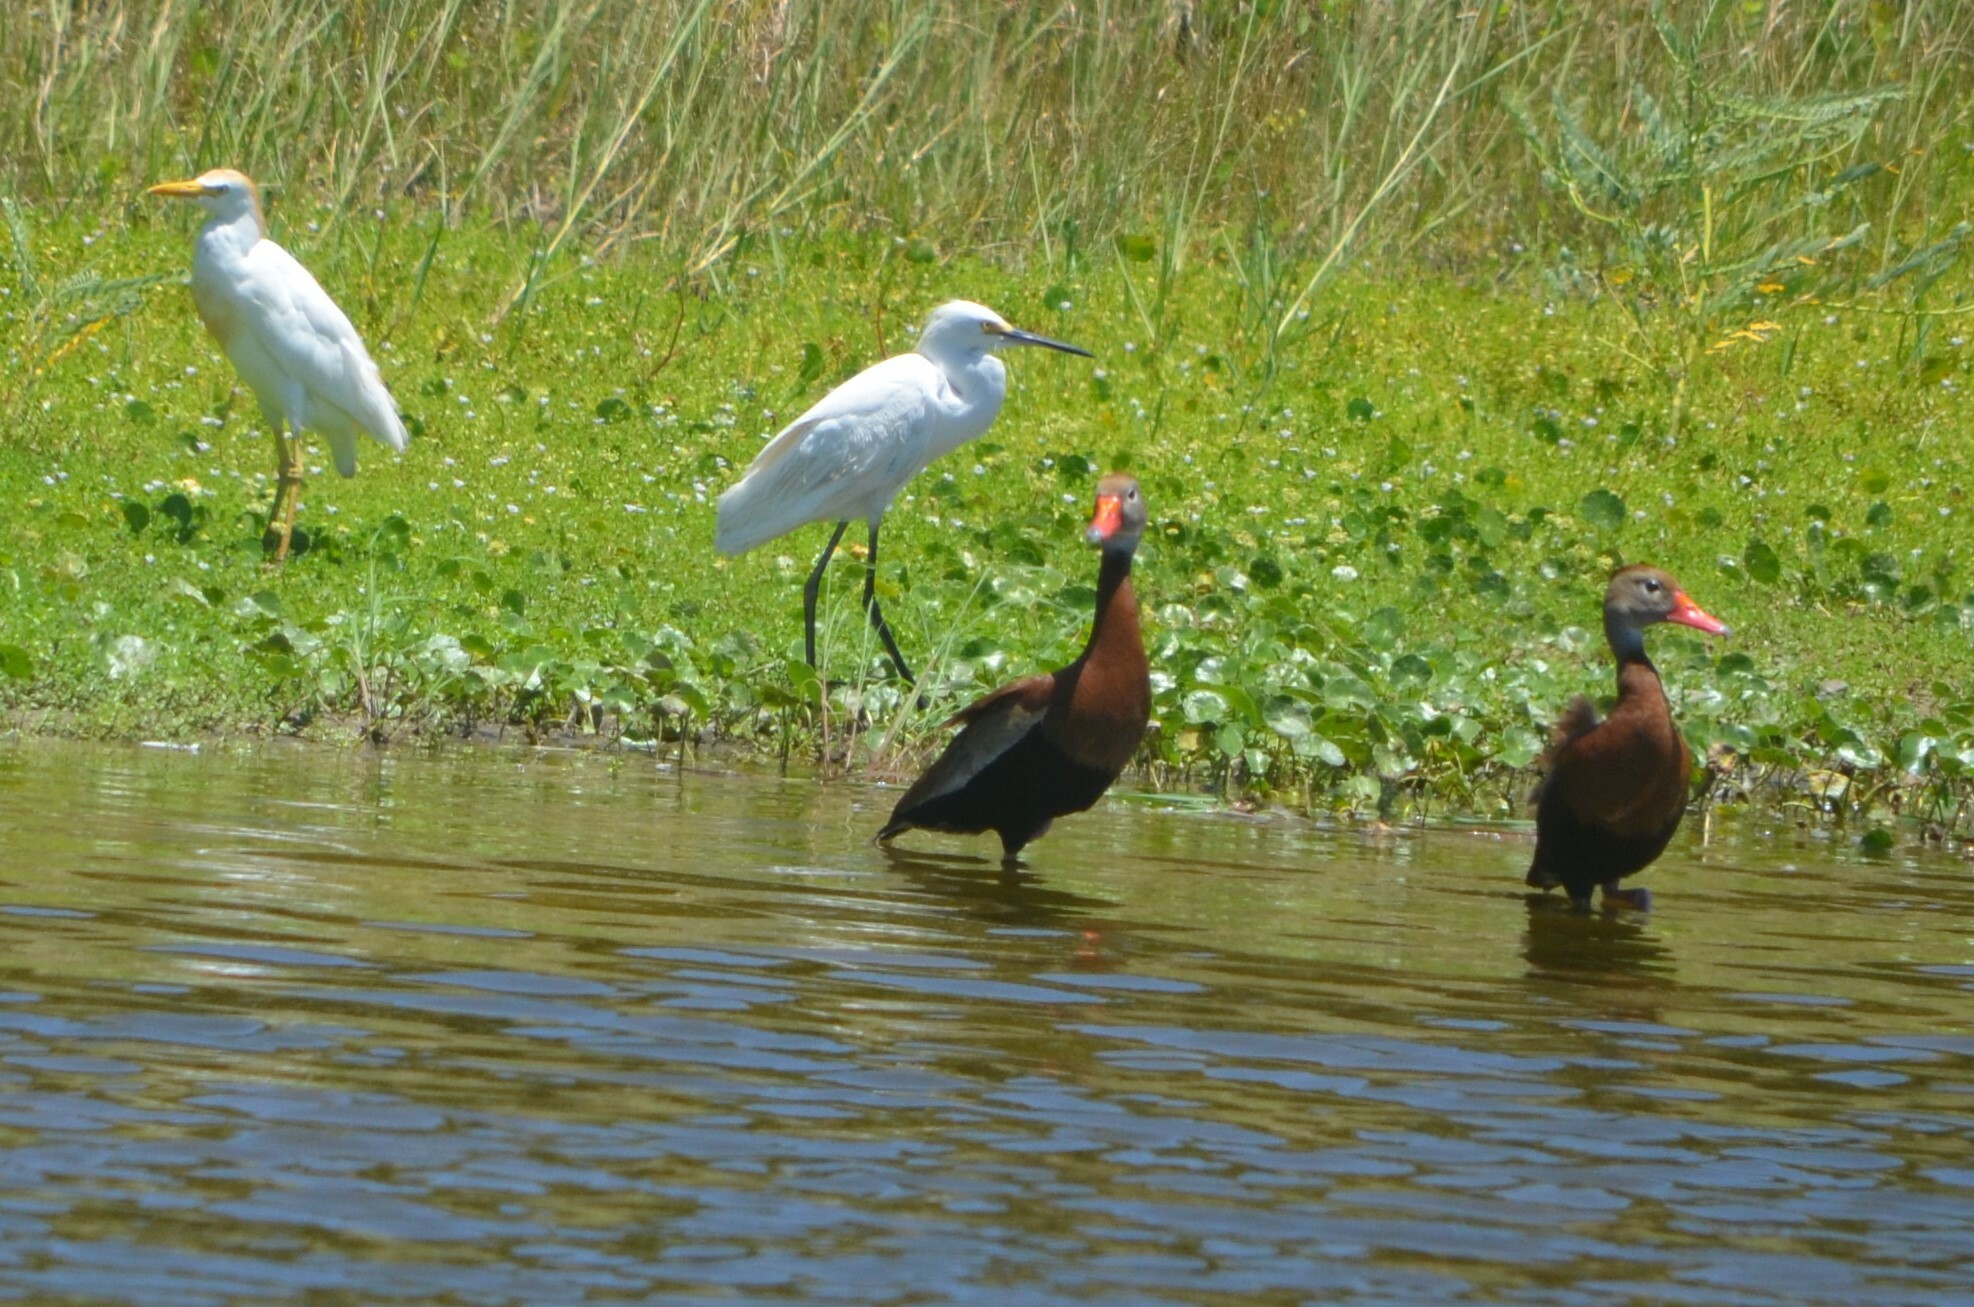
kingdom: Animalia
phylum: Chordata
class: Aves
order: Pelecaniformes
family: Ardeidae
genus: Bubulcus
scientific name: Bubulcus ibis
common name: Cattle egret
